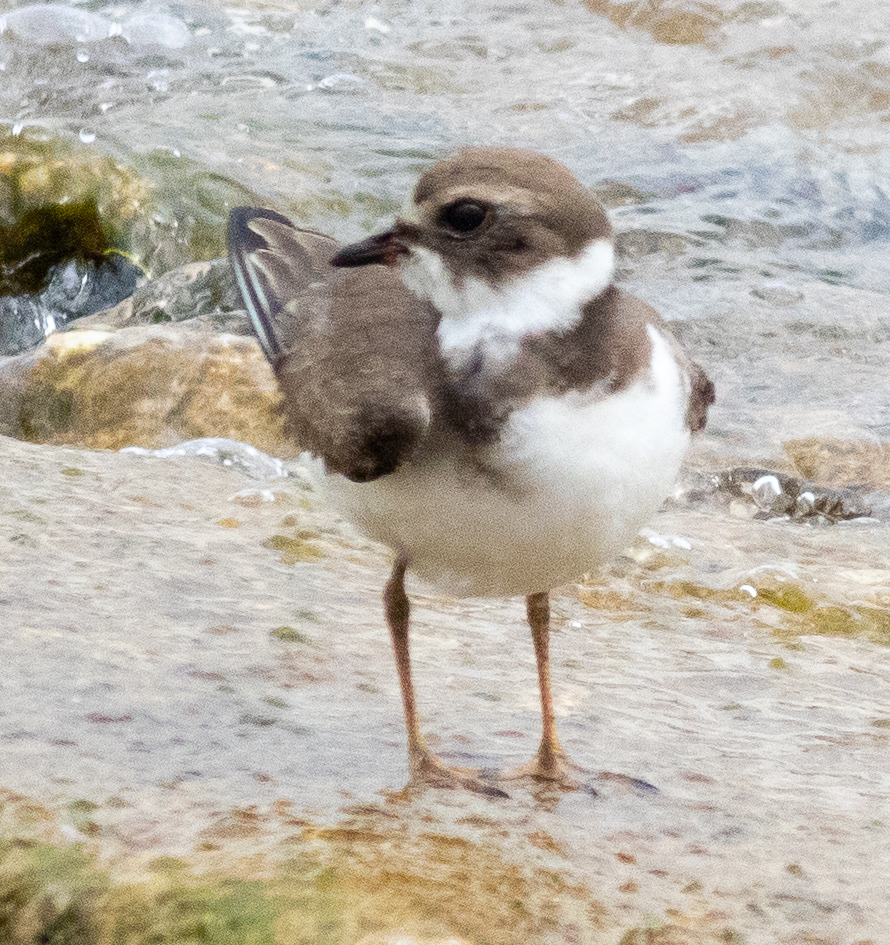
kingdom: Animalia
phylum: Chordata
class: Aves
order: Charadriiformes
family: Charadriidae
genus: Charadrius
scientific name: Charadrius semipalmatus
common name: Semipalmated plover
